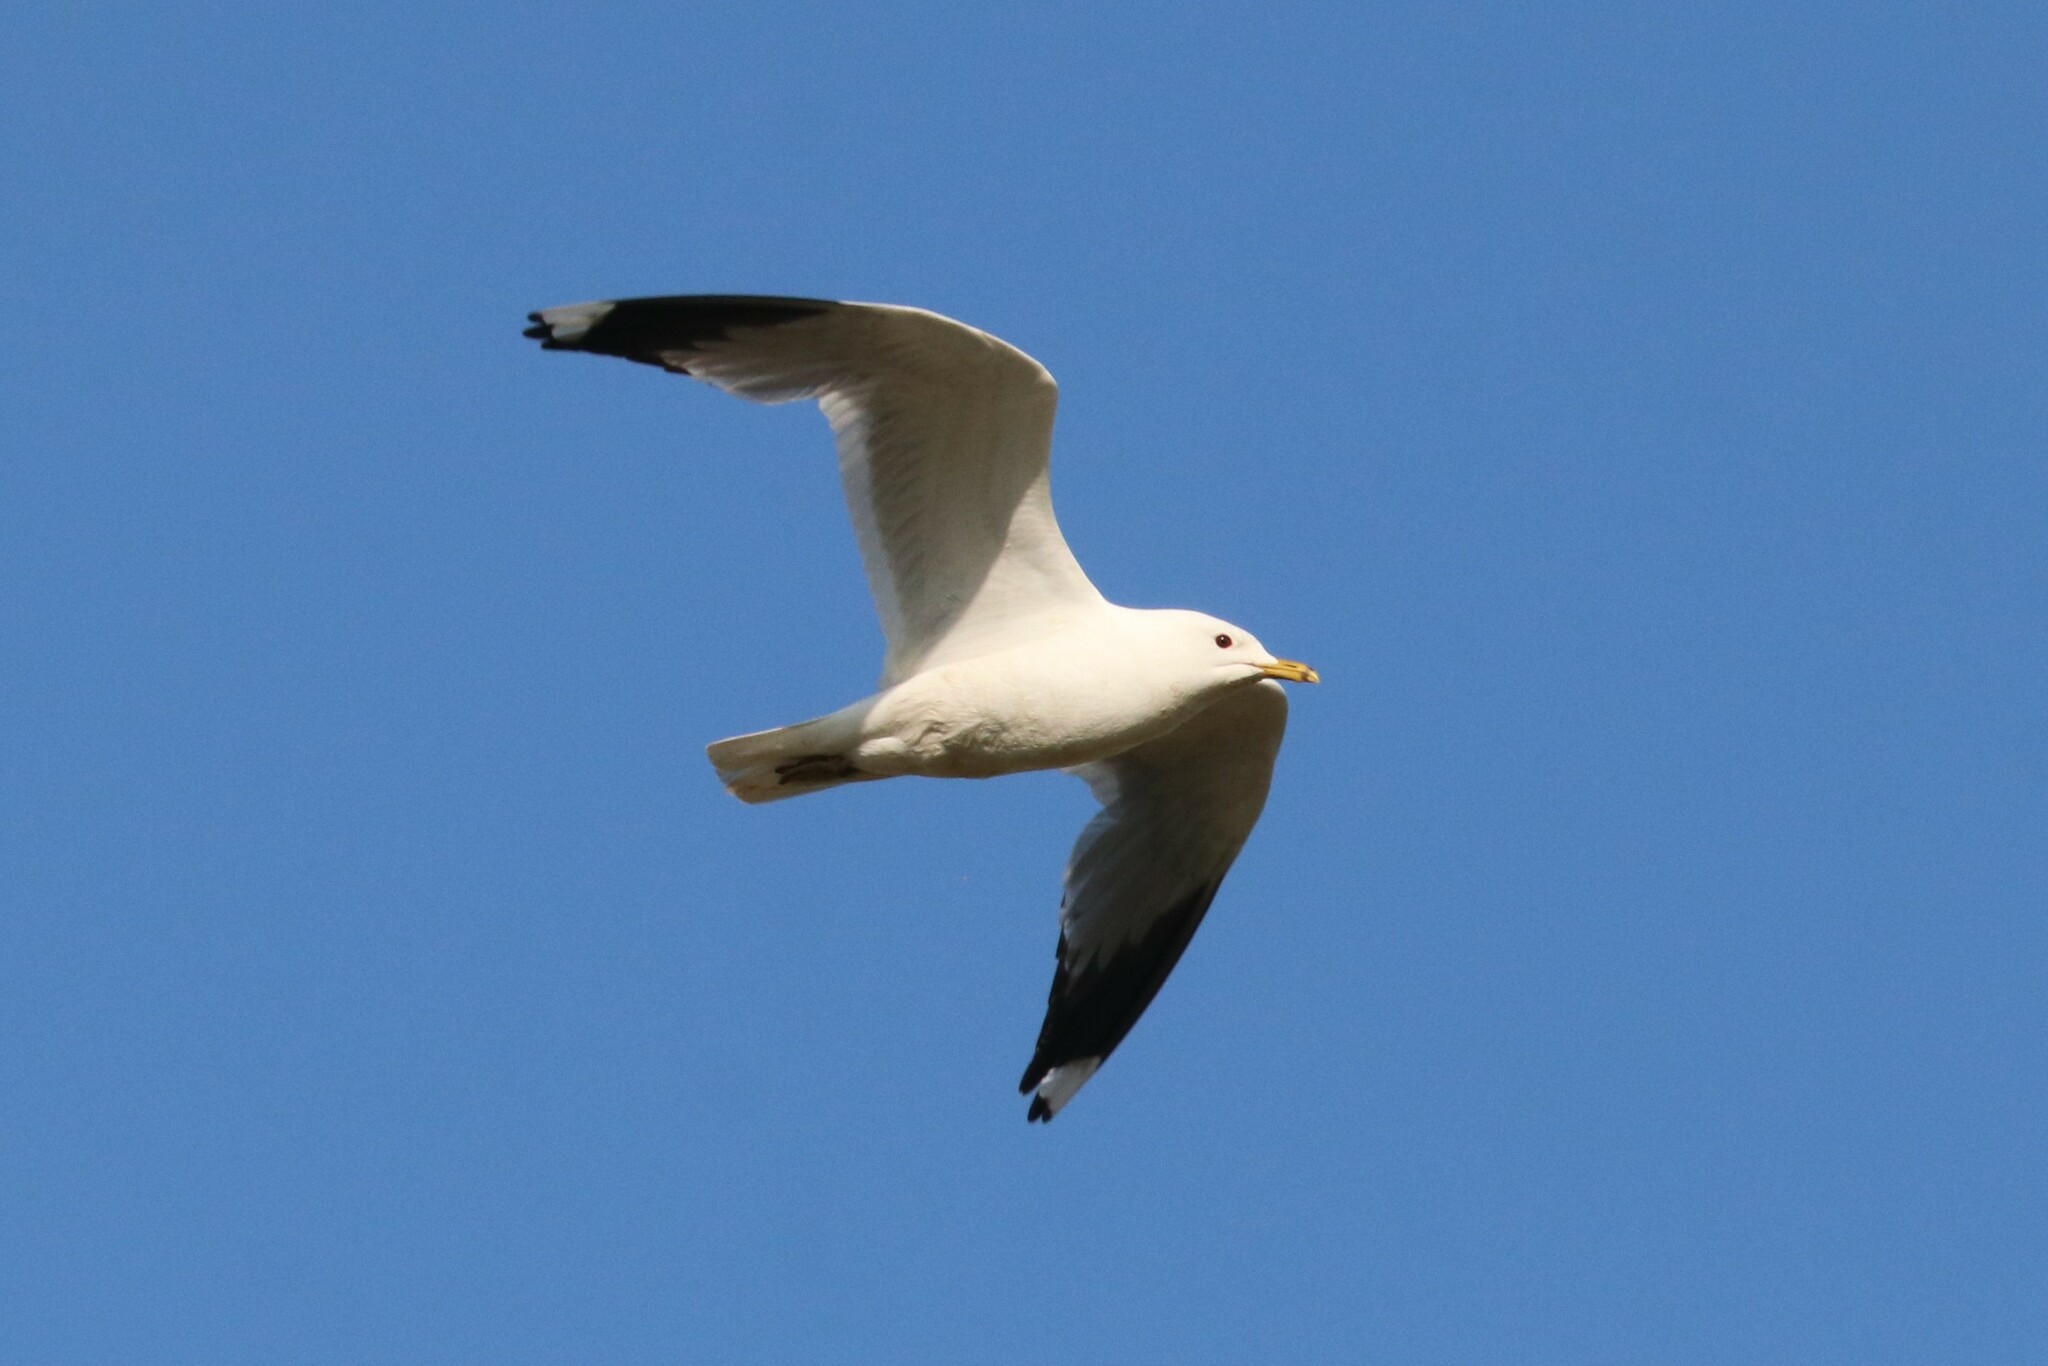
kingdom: Animalia
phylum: Chordata
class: Aves
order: Charadriiformes
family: Laridae
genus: Larus
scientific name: Larus canus
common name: Mew gull
